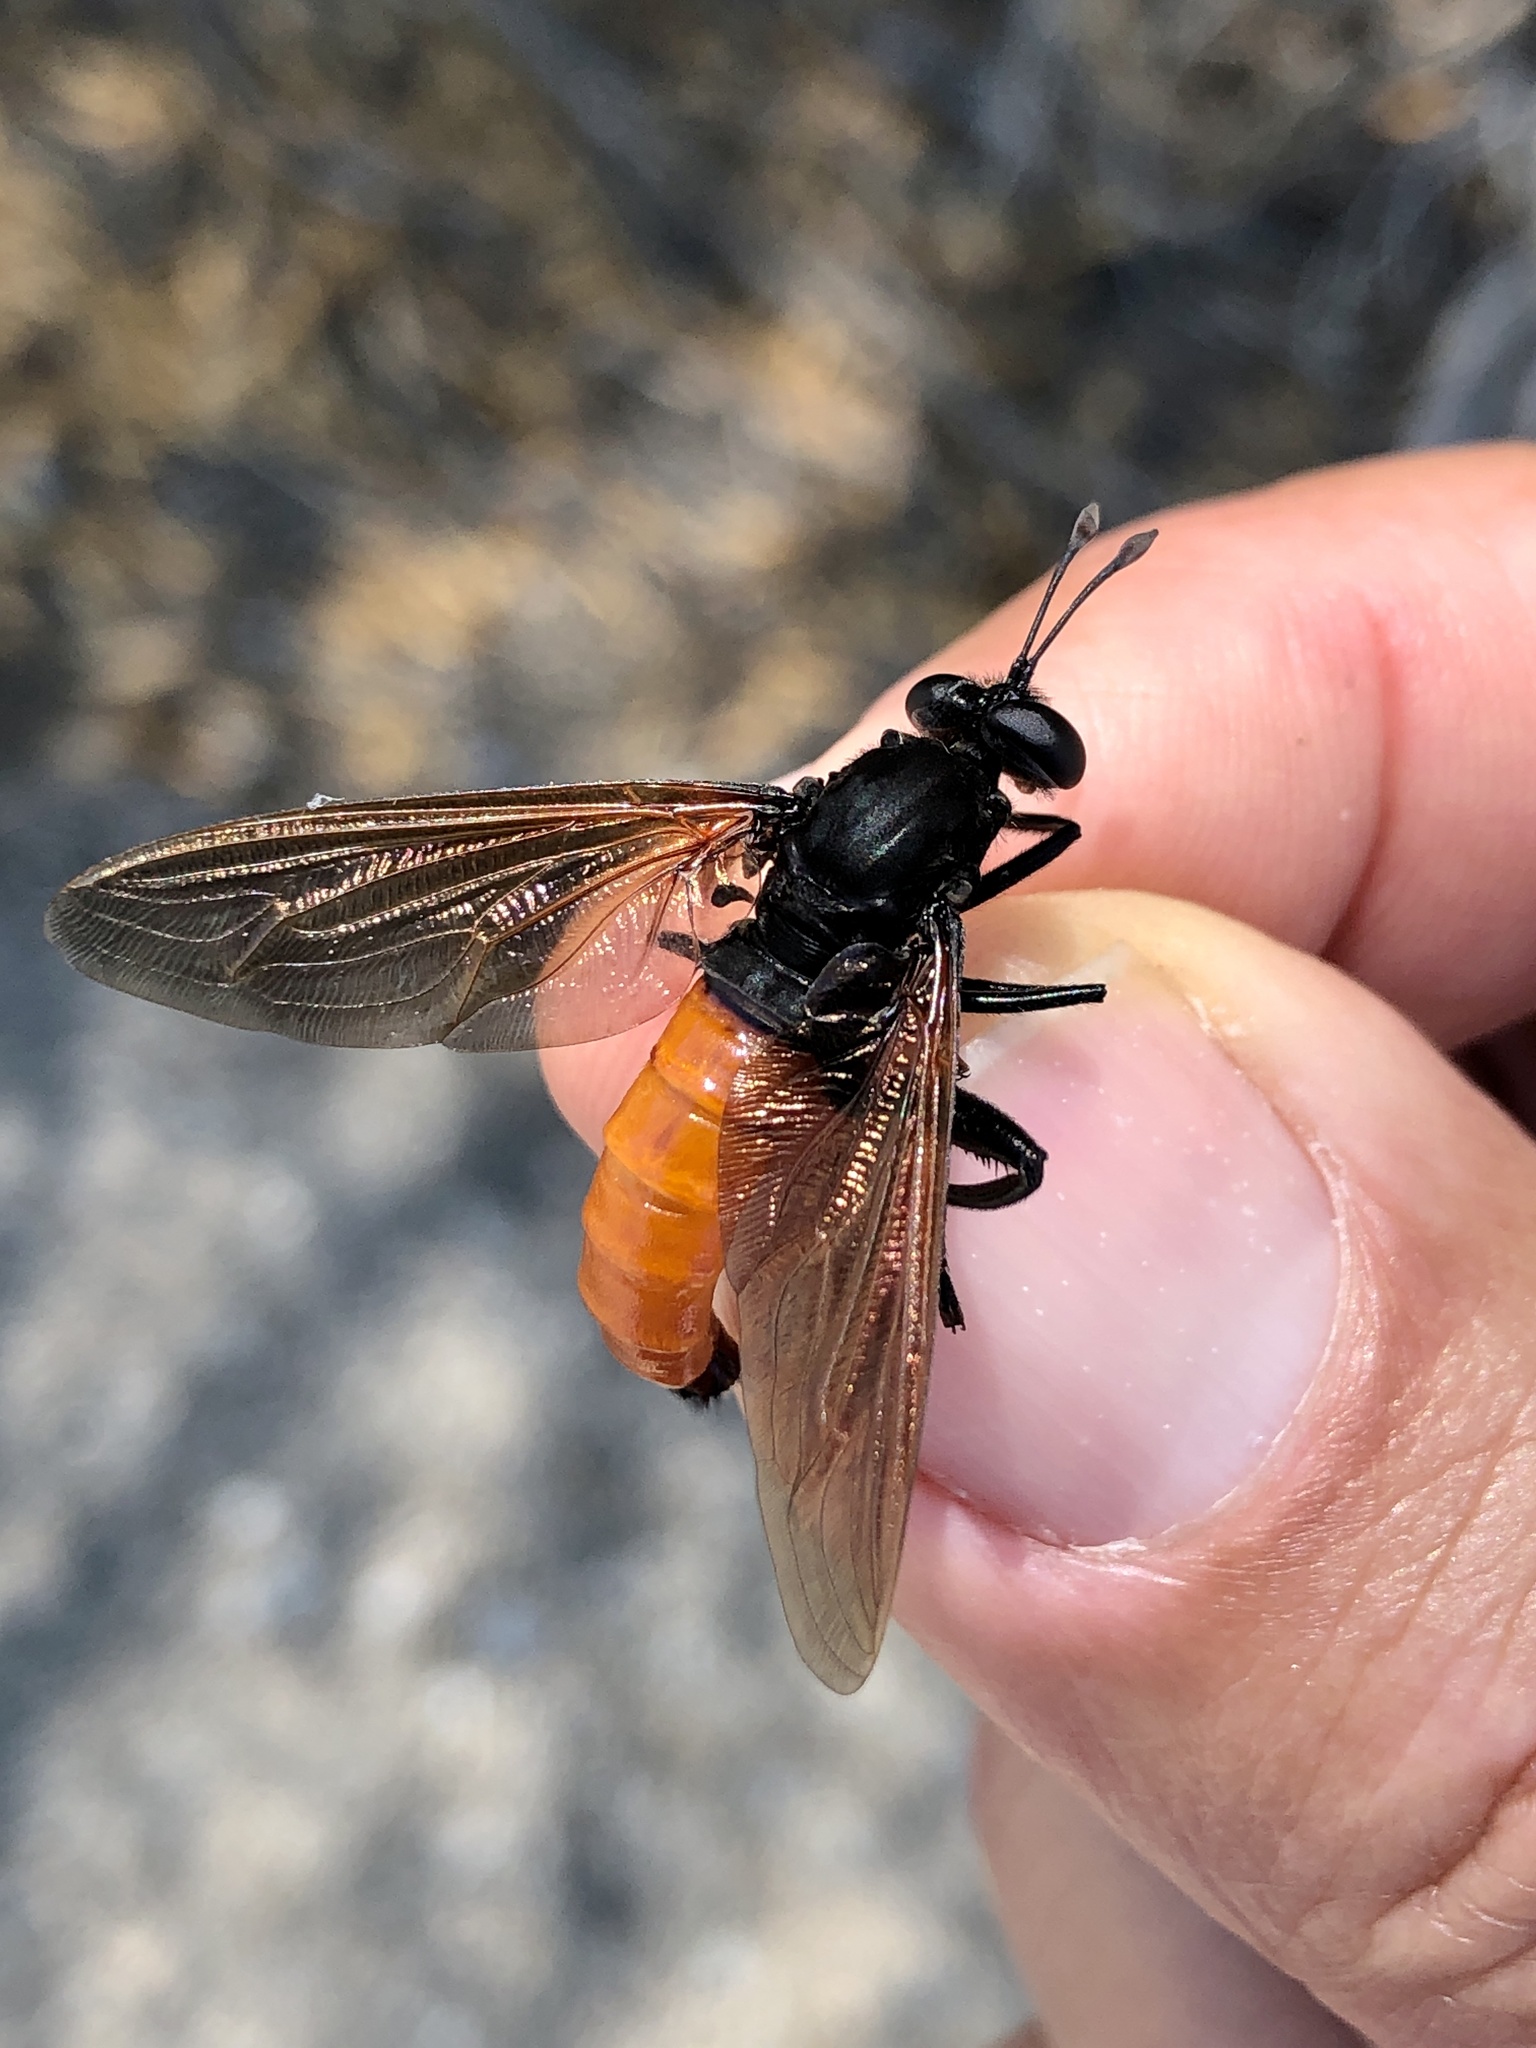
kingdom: Animalia
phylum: Arthropoda
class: Insecta
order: Diptera
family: Mydidae
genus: Mydas
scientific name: Mydas ventralis
